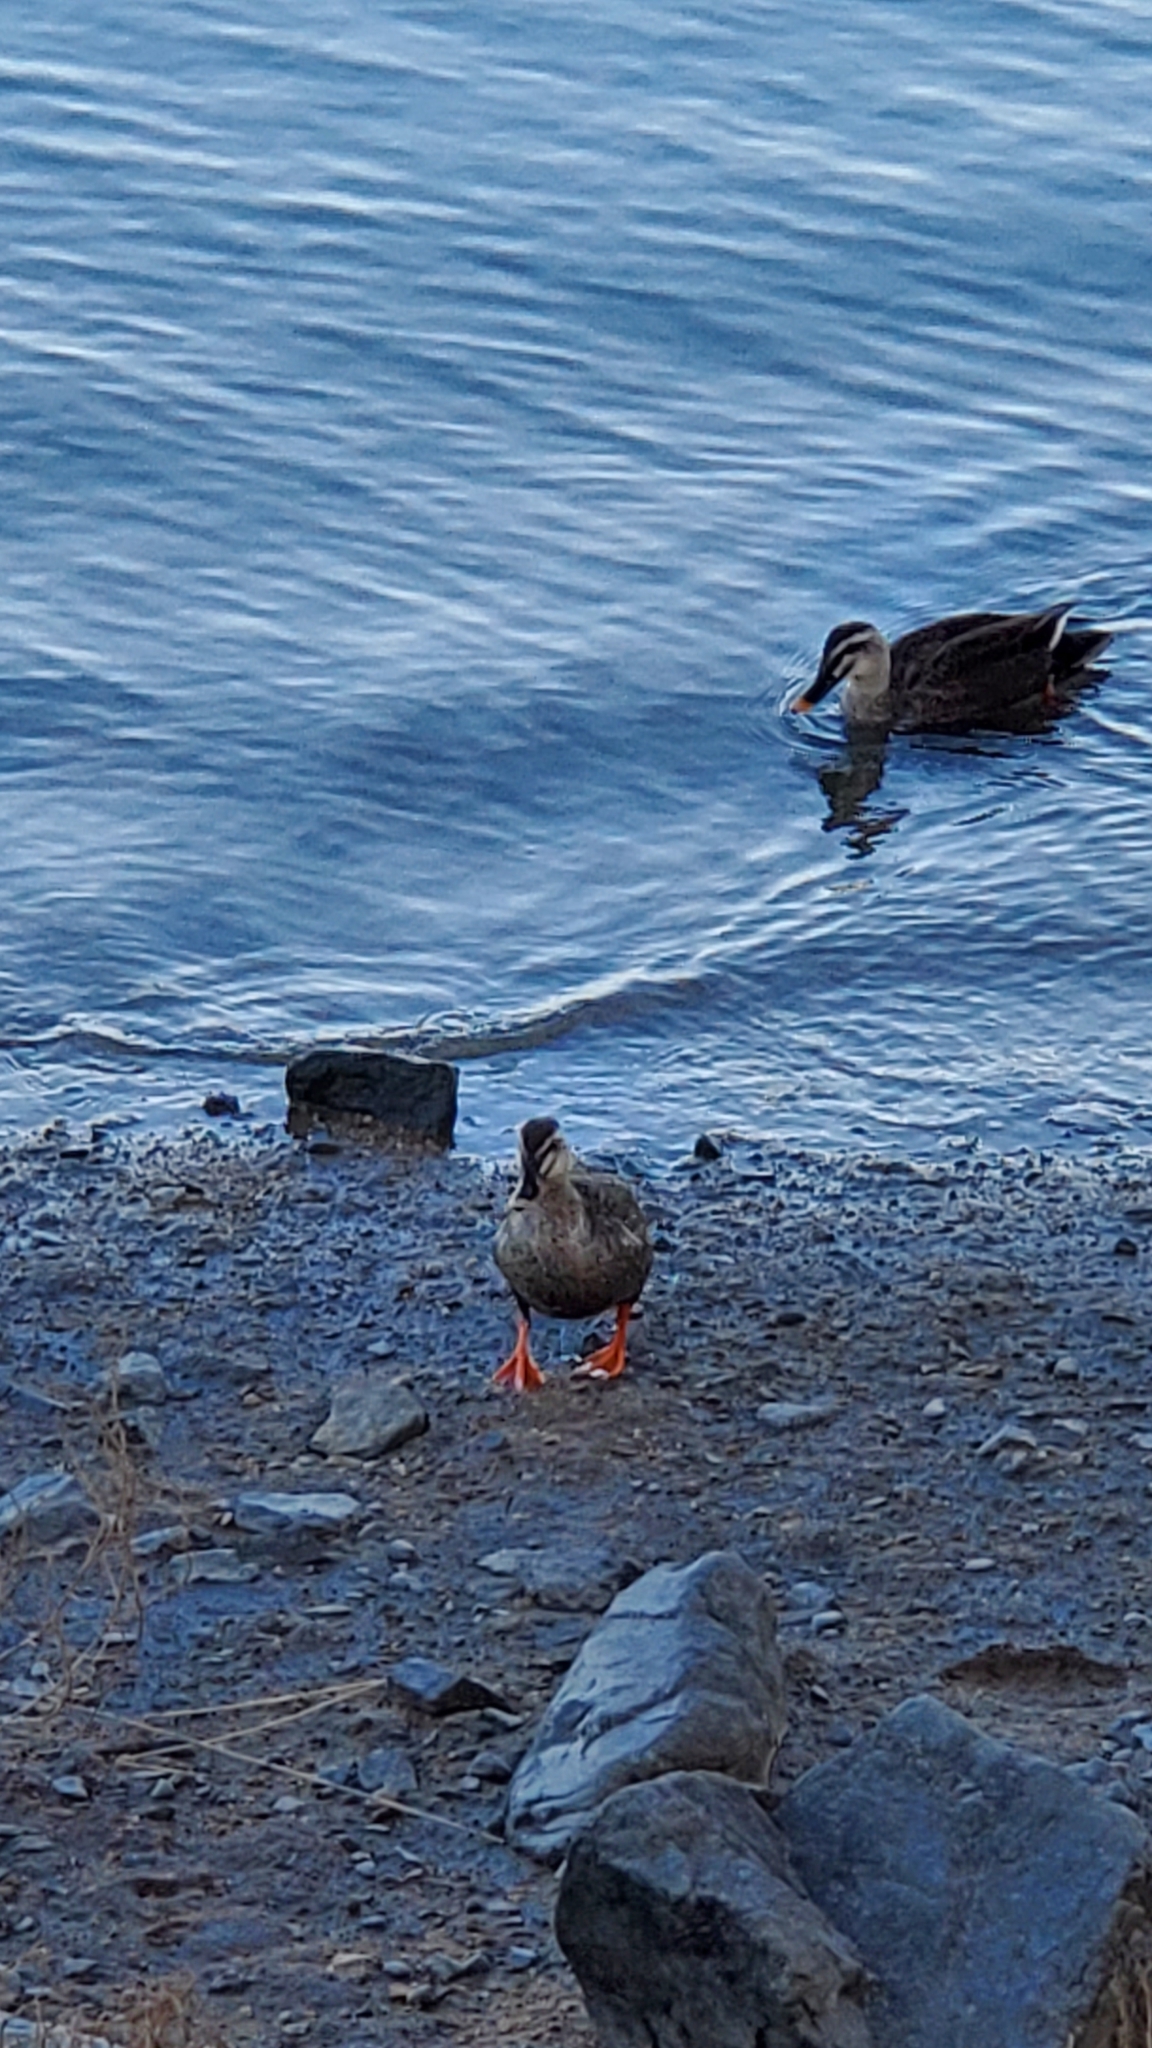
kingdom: Animalia
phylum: Chordata
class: Aves
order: Anseriformes
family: Anatidae
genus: Anas
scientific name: Anas zonorhyncha
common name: Eastern spot-billed duck
